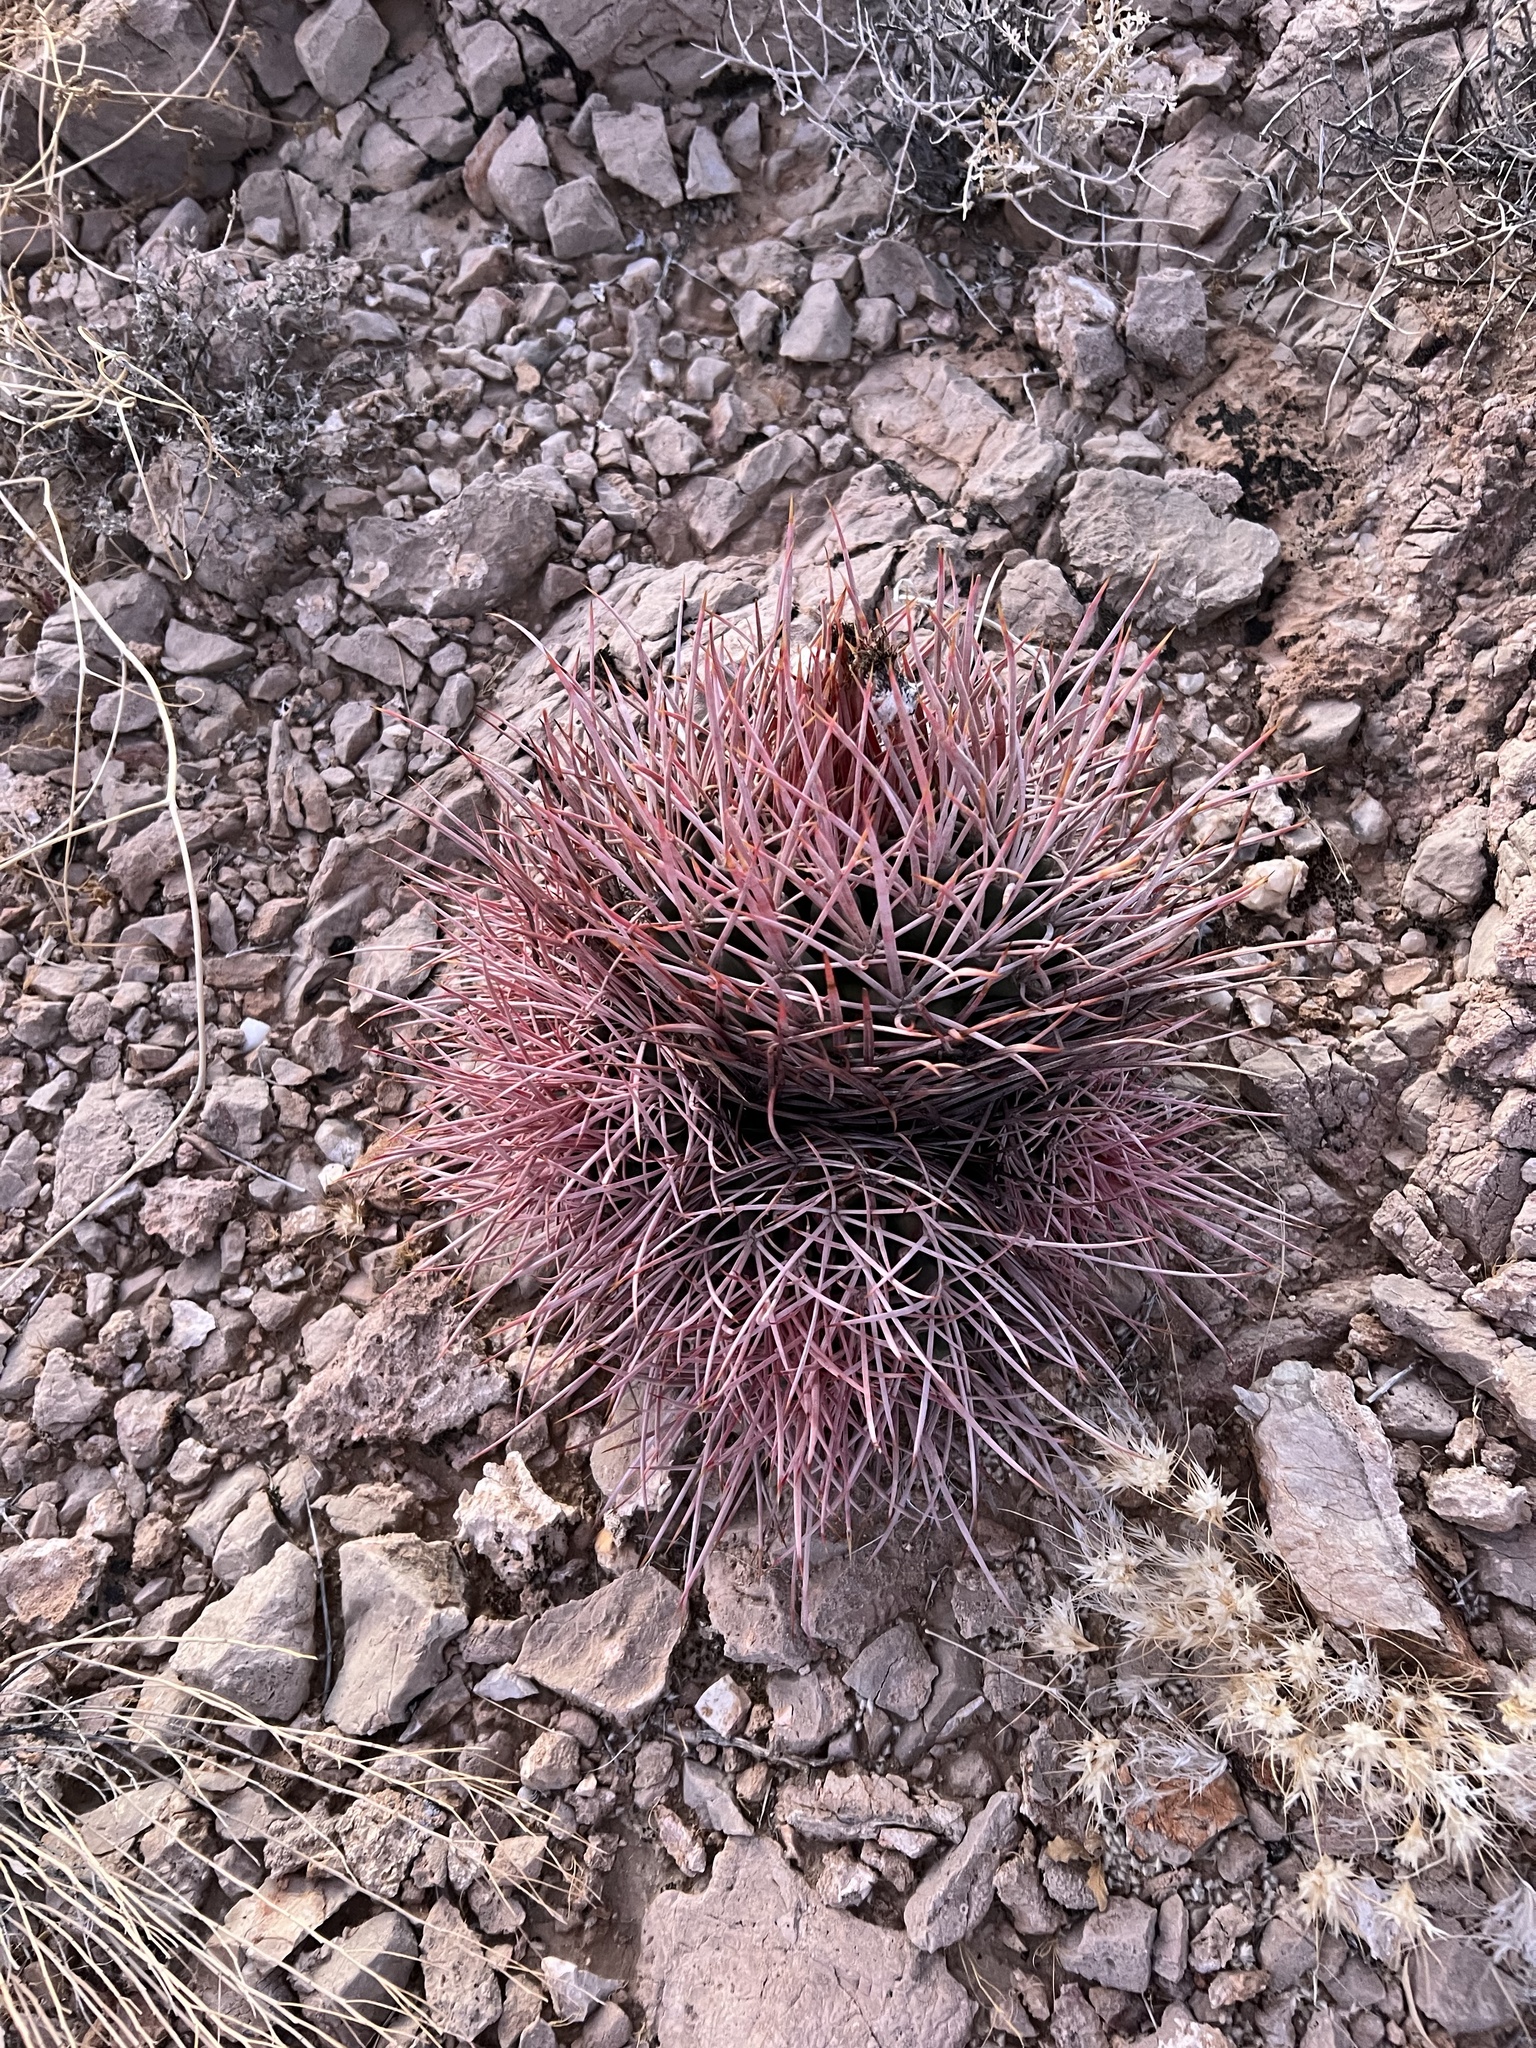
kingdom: Plantae
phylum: Tracheophyta
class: Magnoliopsida
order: Caryophyllales
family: Cactaceae
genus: Echinocactus
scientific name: Echinocactus polycephalus
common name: Cottontop cactus
